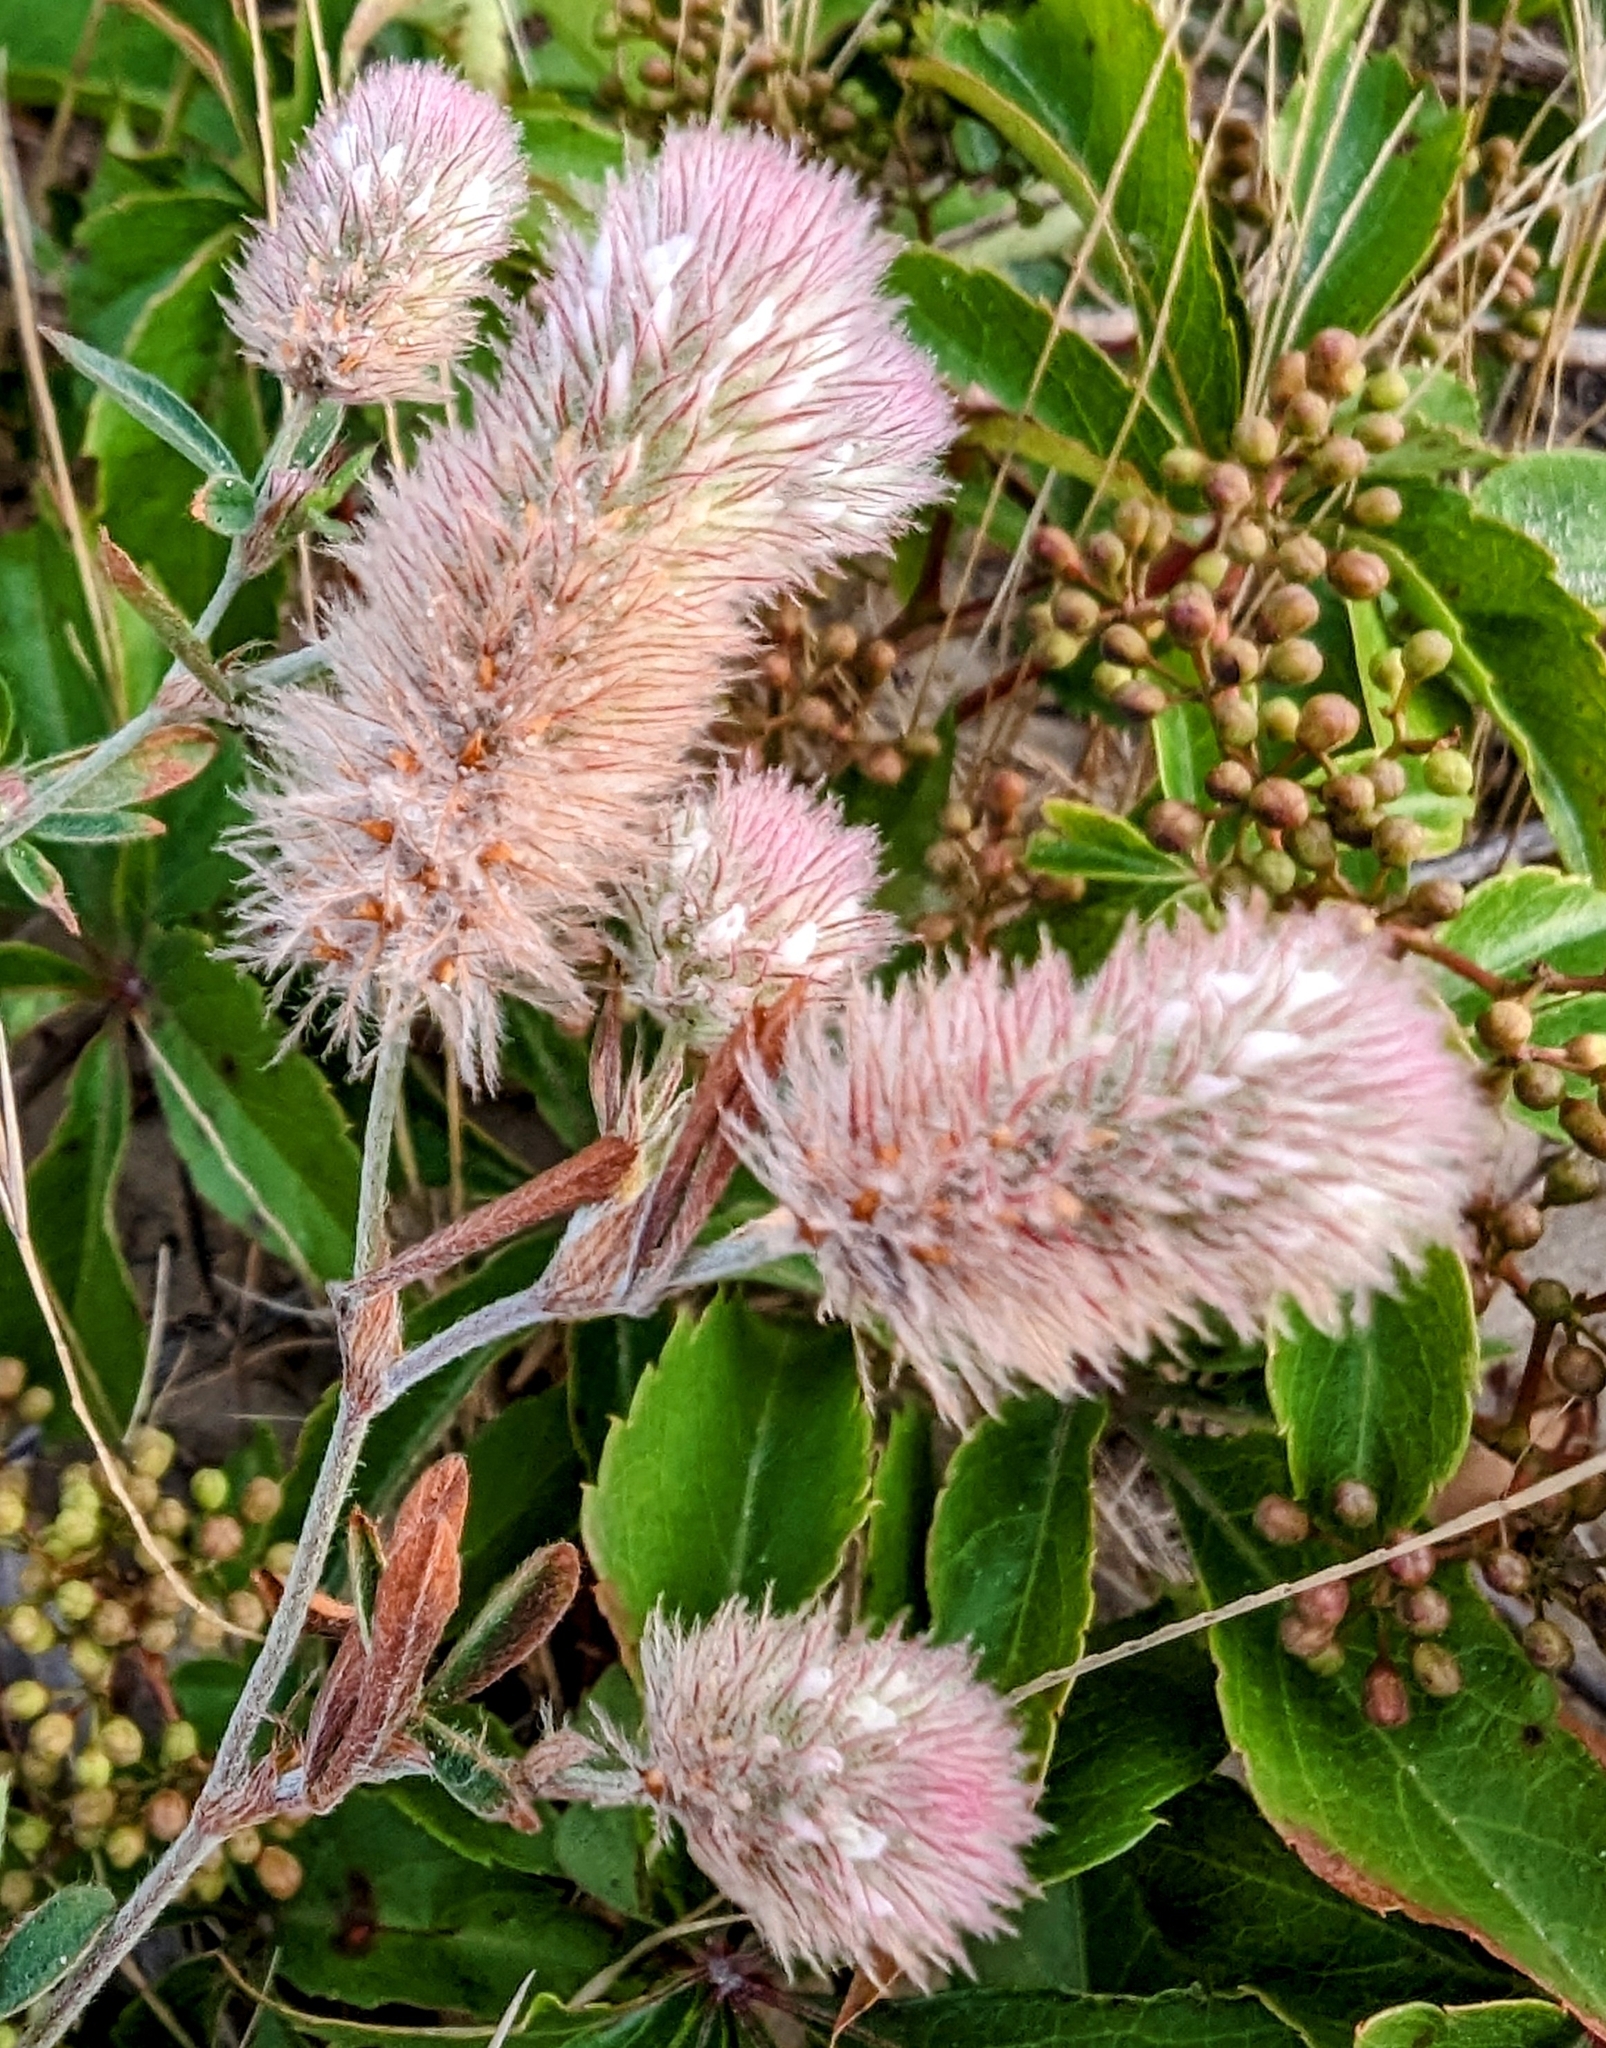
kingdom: Plantae
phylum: Tracheophyta
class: Magnoliopsida
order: Fabales
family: Fabaceae
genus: Trifolium
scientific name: Trifolium arvense
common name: Hare's-foot clover
